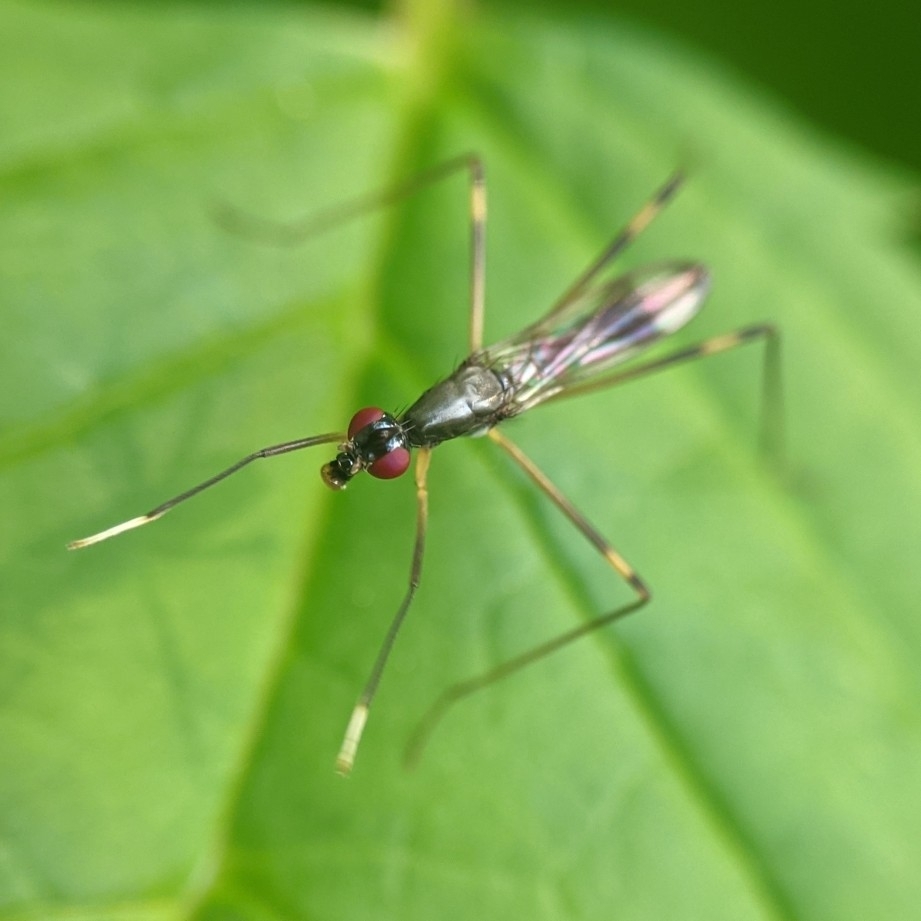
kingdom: Animalia
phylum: Arthropoda
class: Insecta
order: Diptera
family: Micropezidae
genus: Rainieria
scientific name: Rainieria antennaepes
